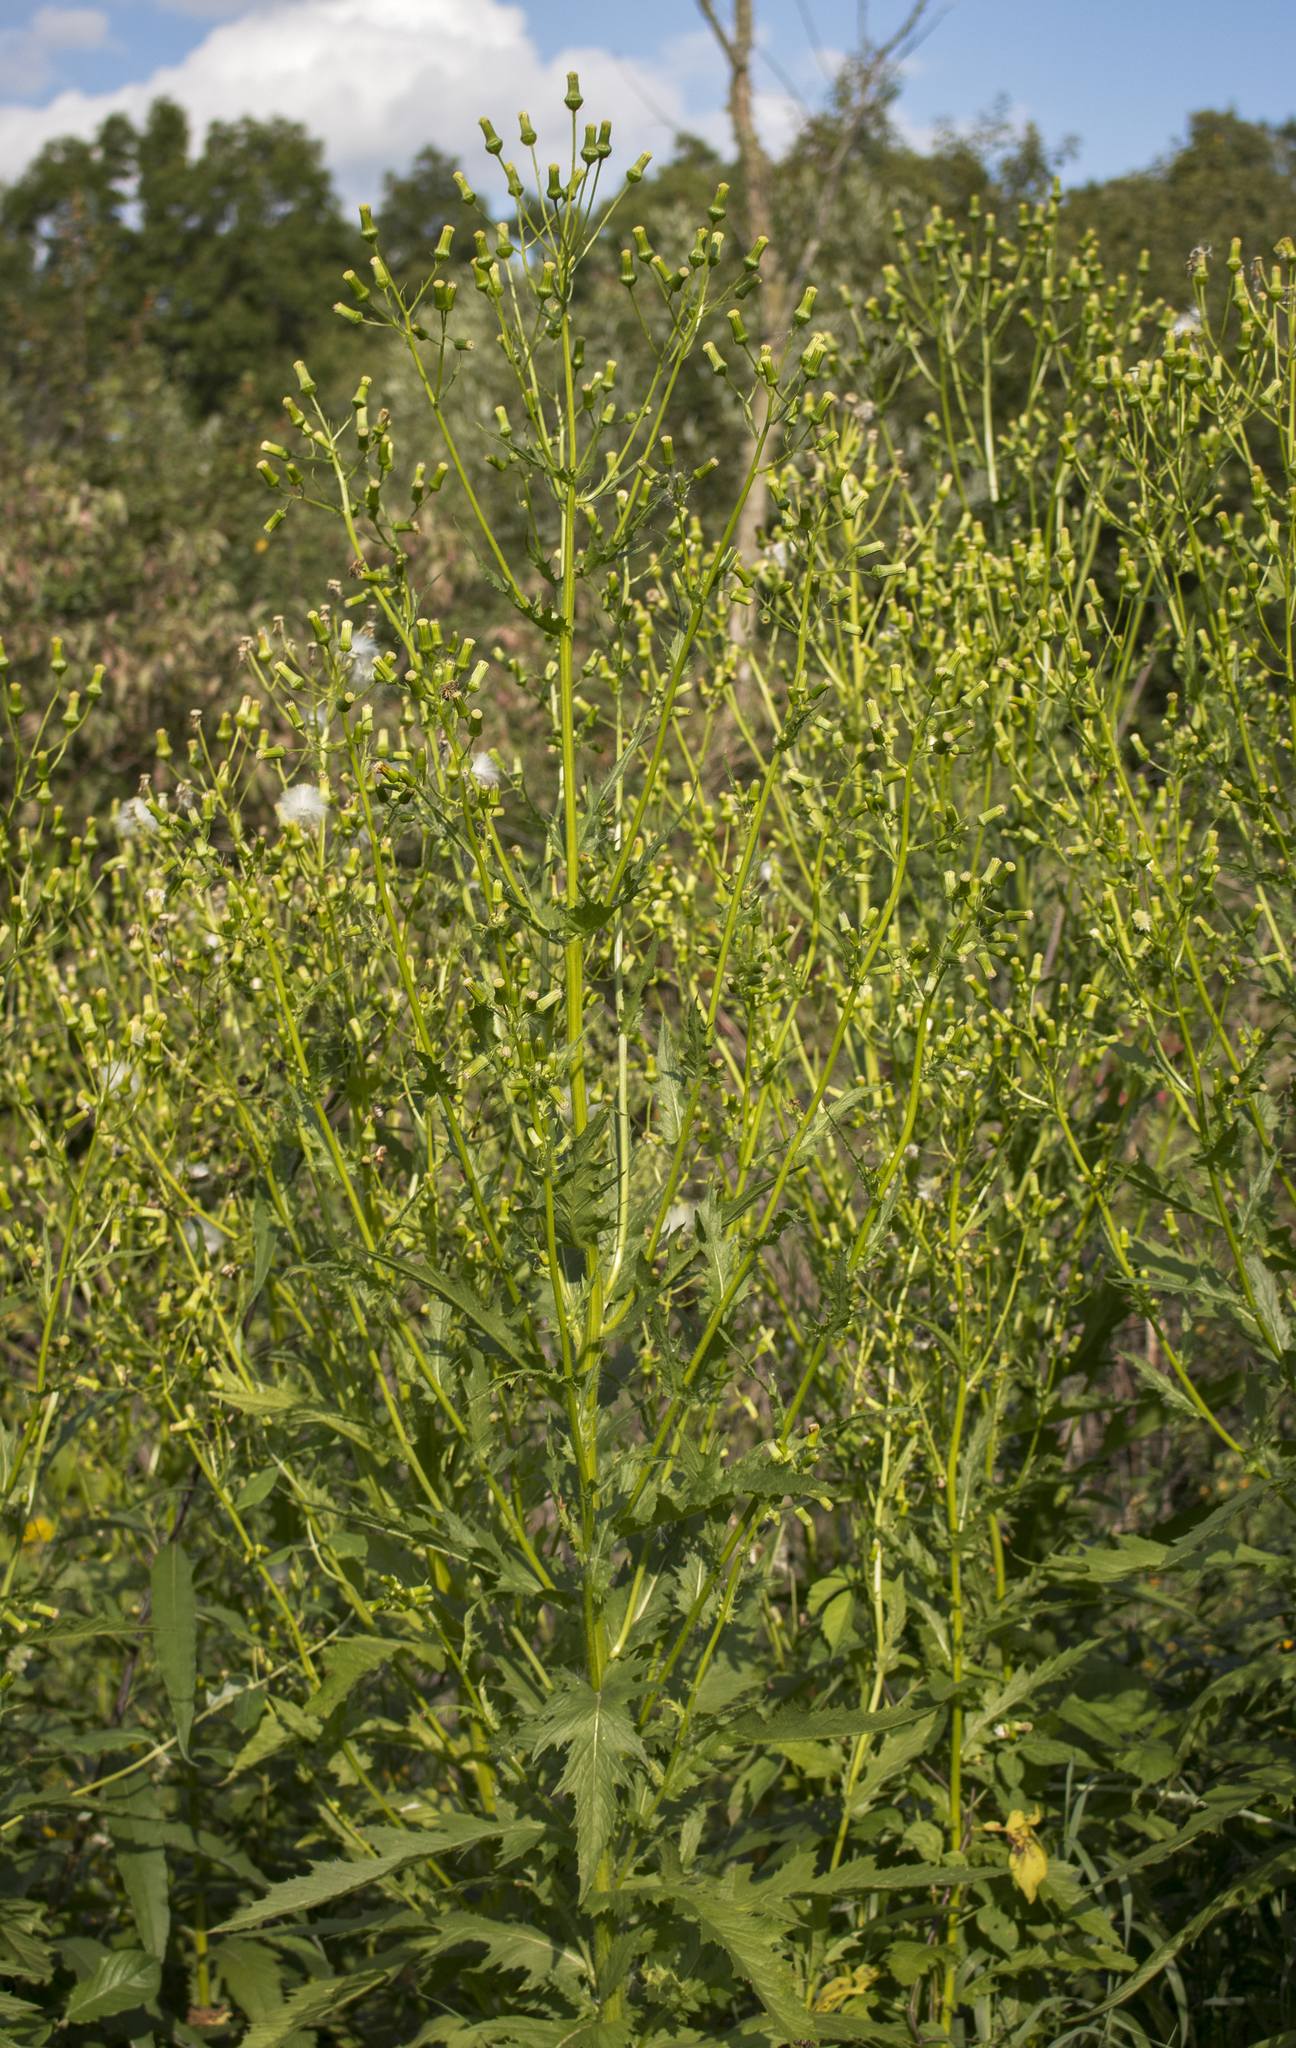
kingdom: Plantae
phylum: Tracheophyta
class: Magnoliopsida
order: Asterales
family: Asteraceae
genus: Erechtites
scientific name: Erechtites hieraciifolius
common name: American burnweed
